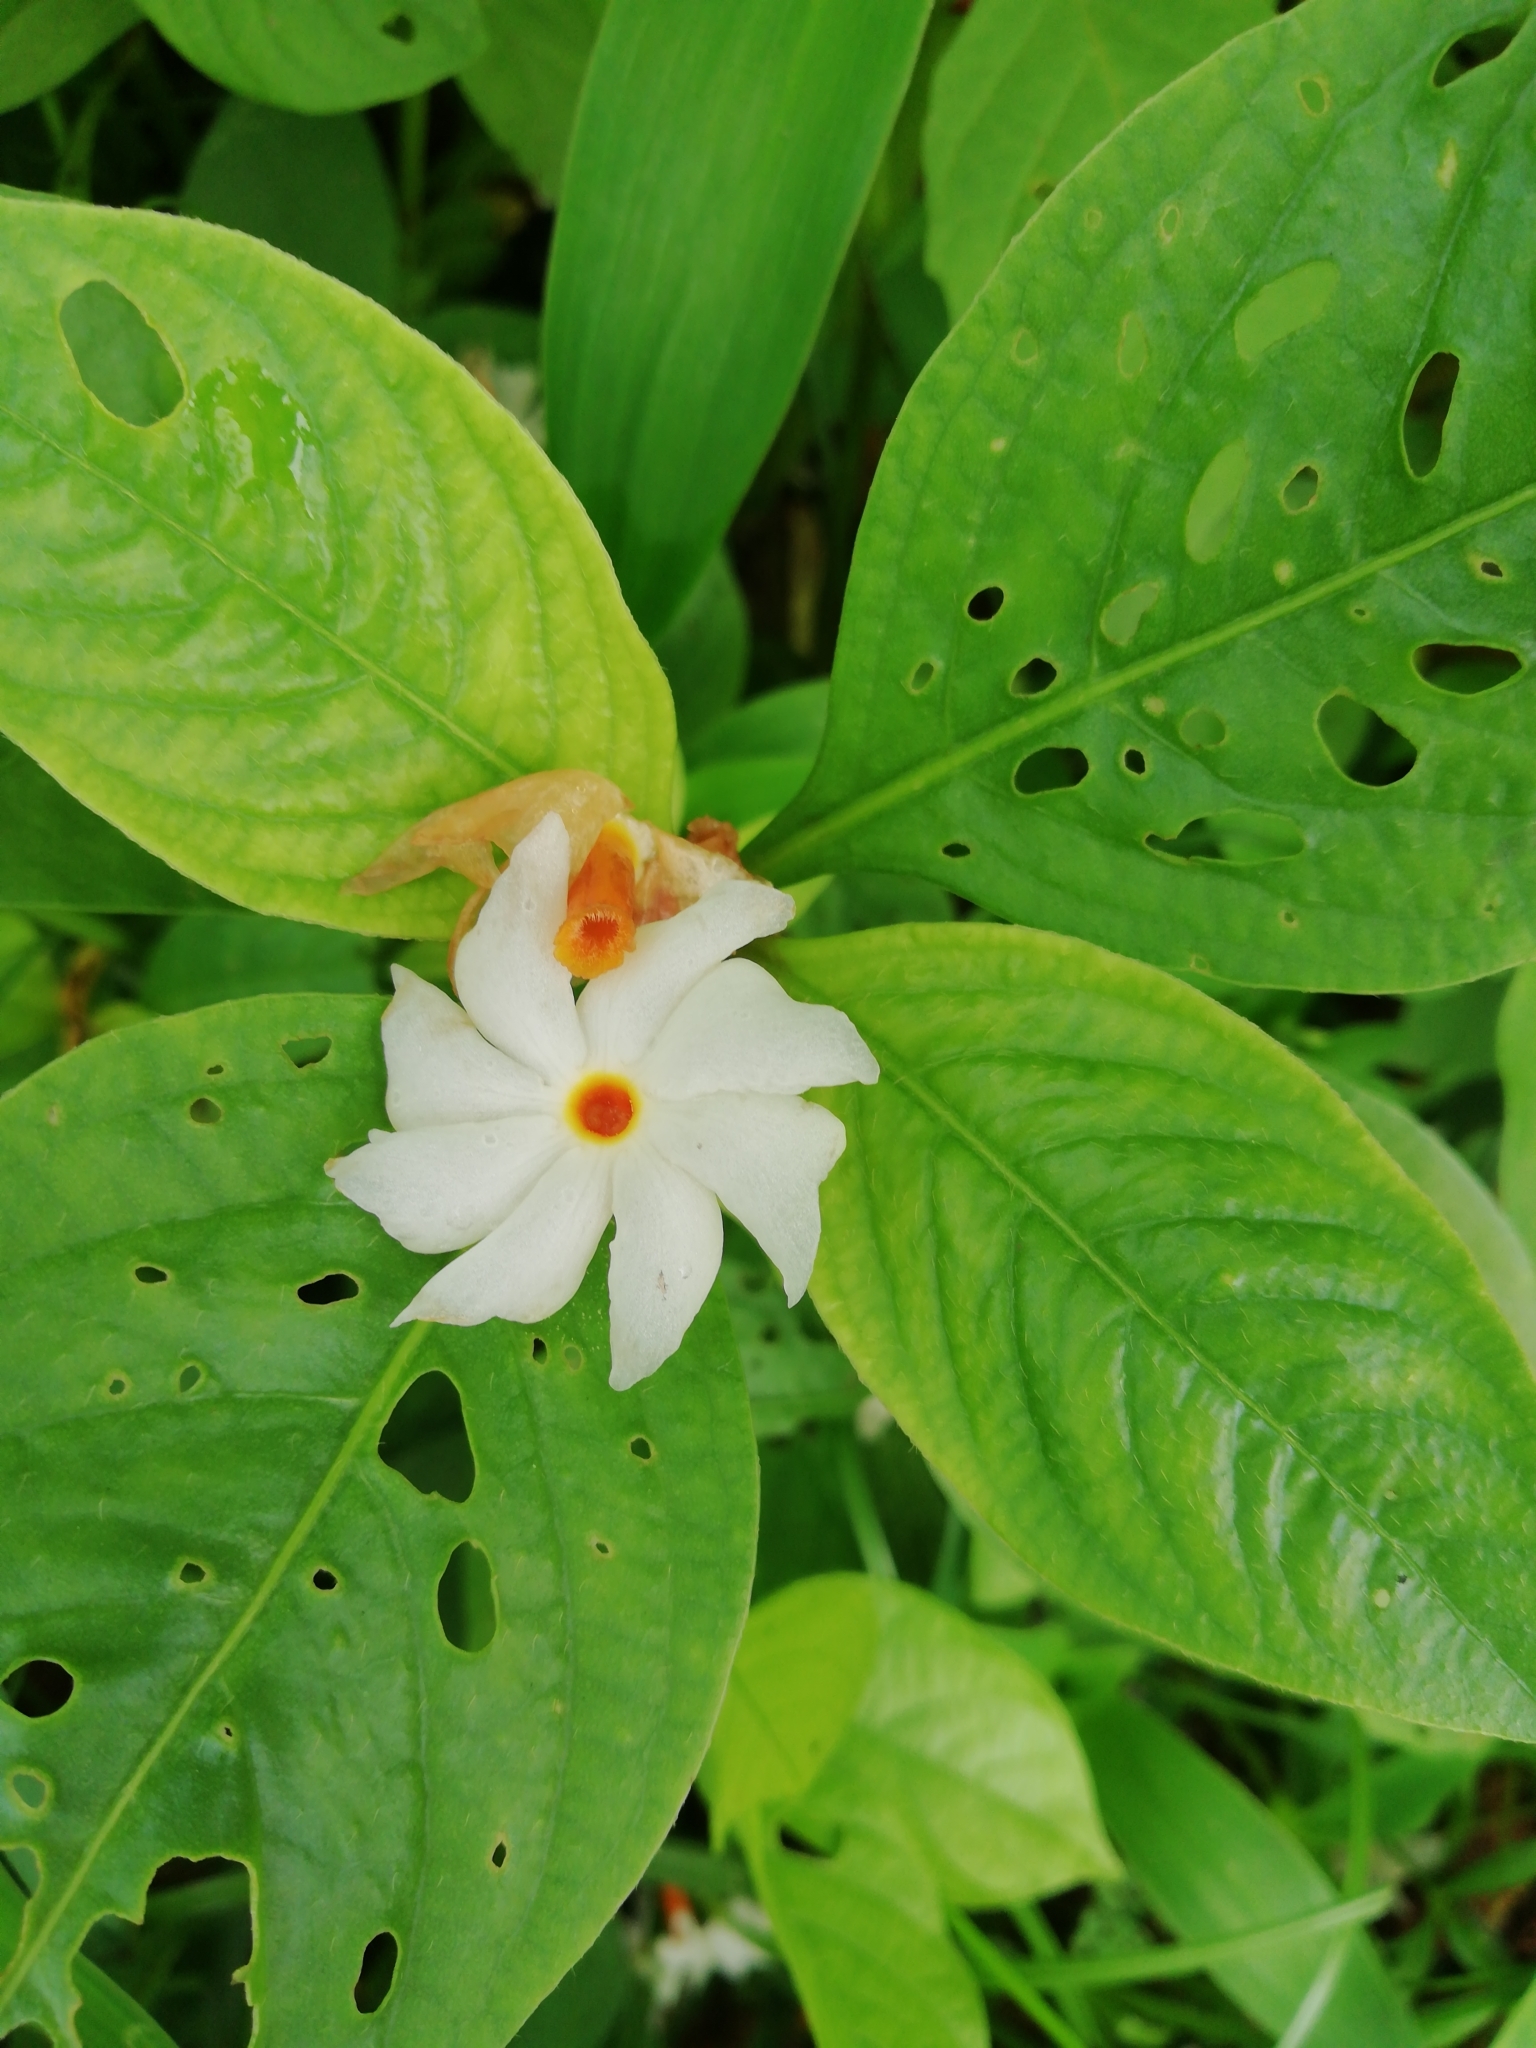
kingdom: Plantae
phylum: Tracheophyta
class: Magnoliopsida
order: Lamiales
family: Oleaceae
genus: Nyctanthes
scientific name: Nyctanthes arbor-tristis
